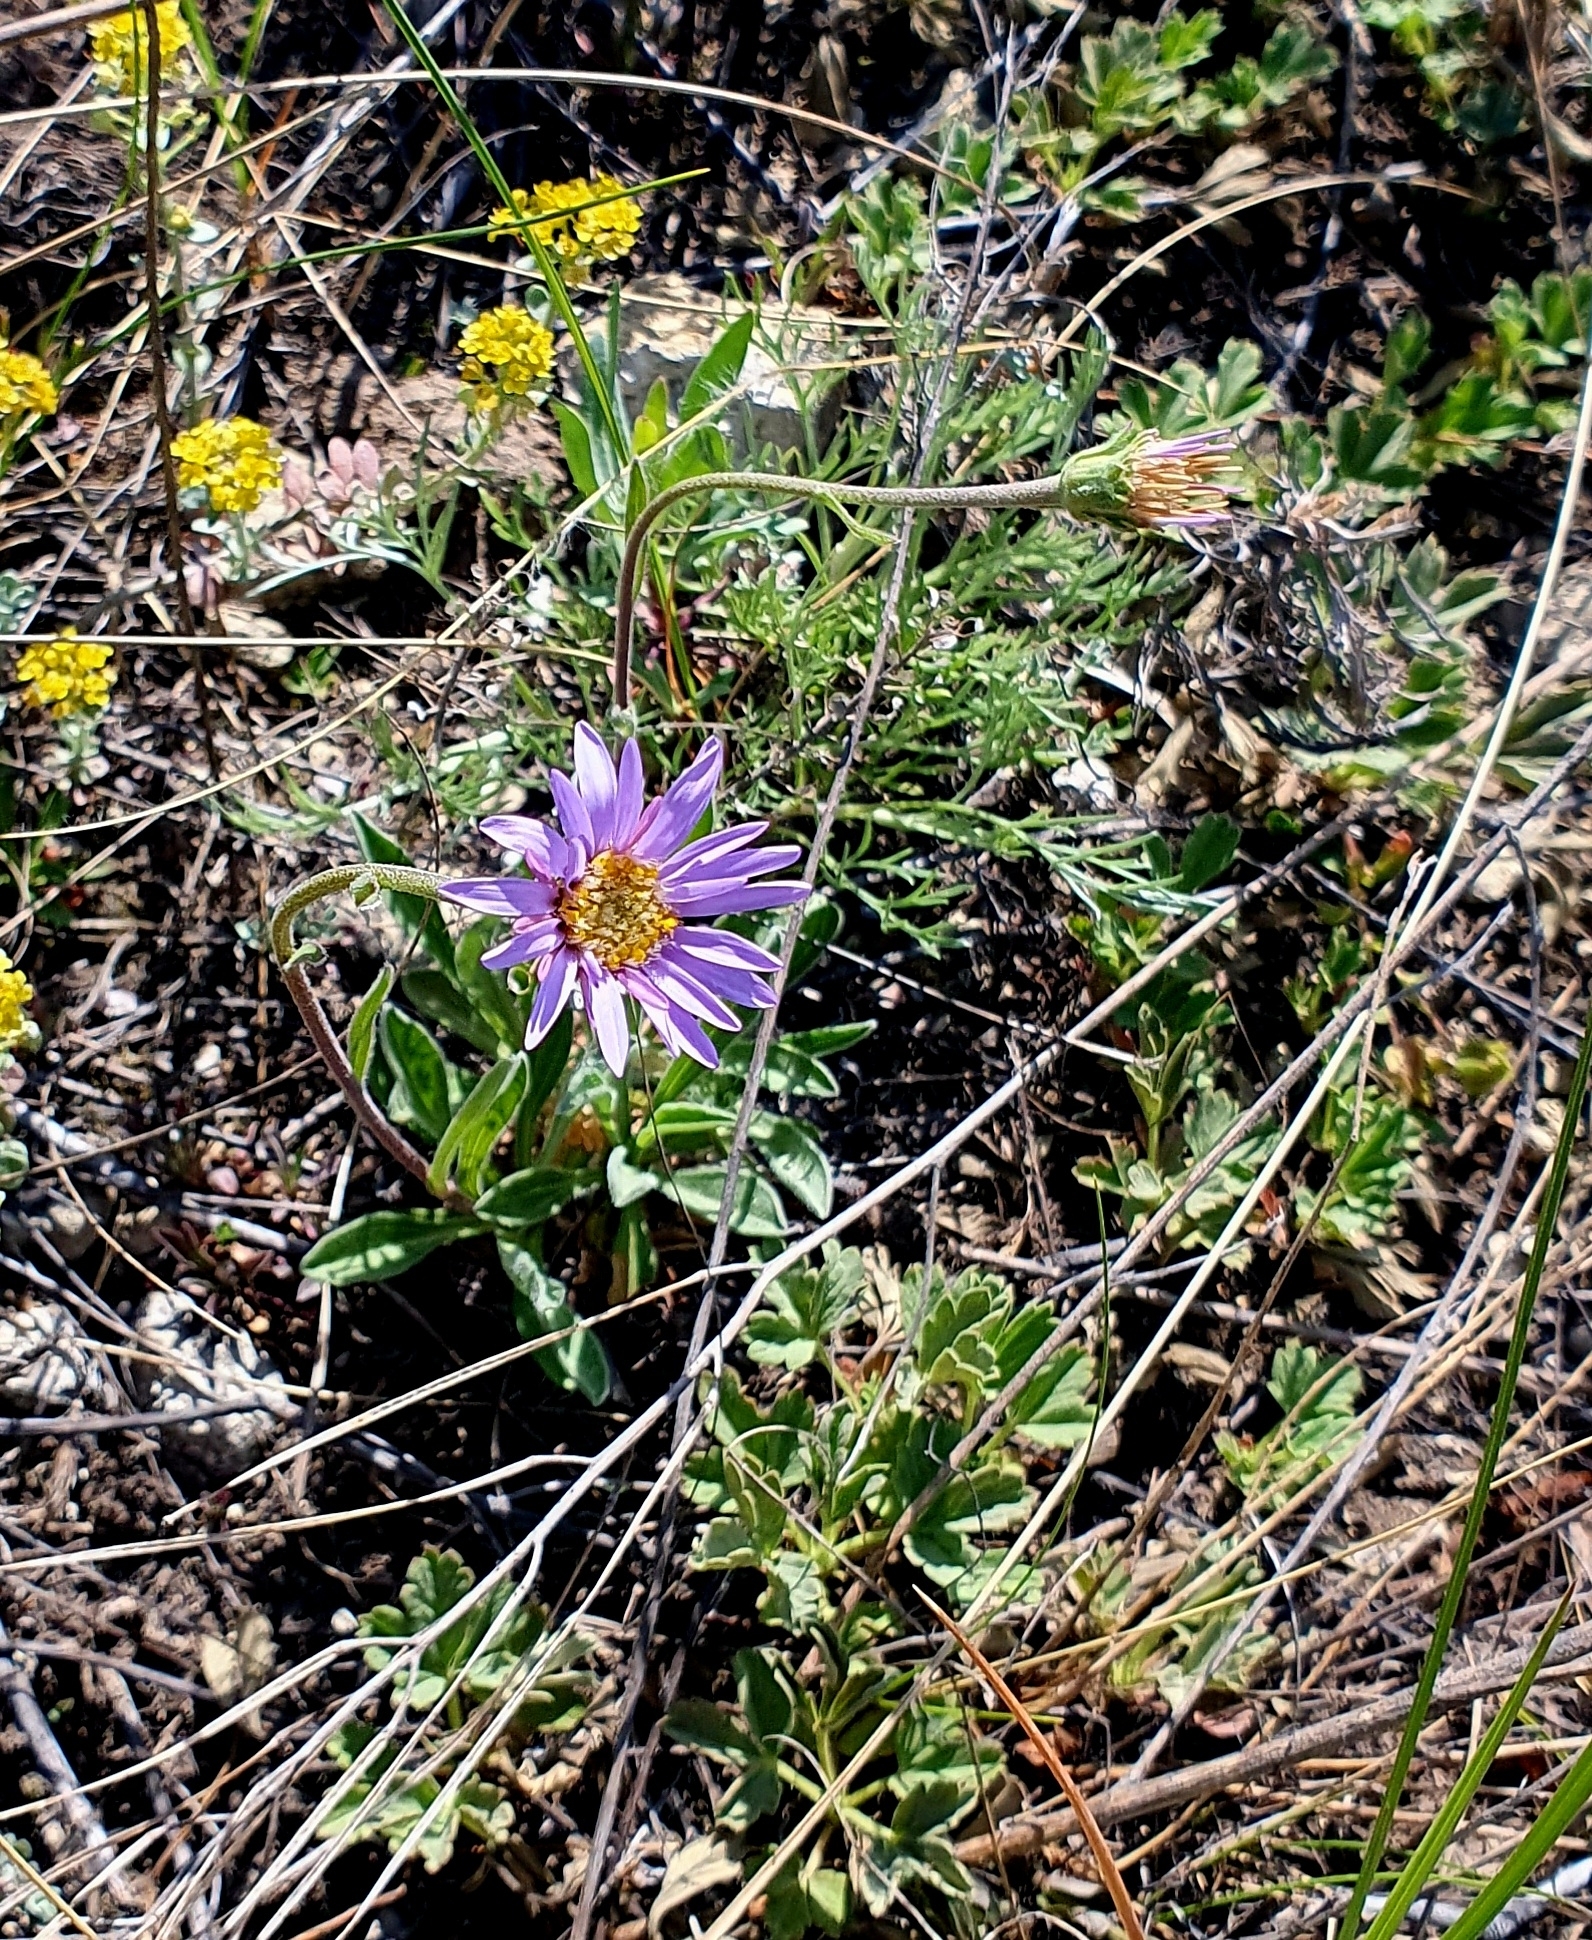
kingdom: Plantae
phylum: Tracheophyta
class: Magnoliopsida
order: Asterales
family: Asteraceae
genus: Aster
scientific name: Aster alpinus
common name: Alpine aster
